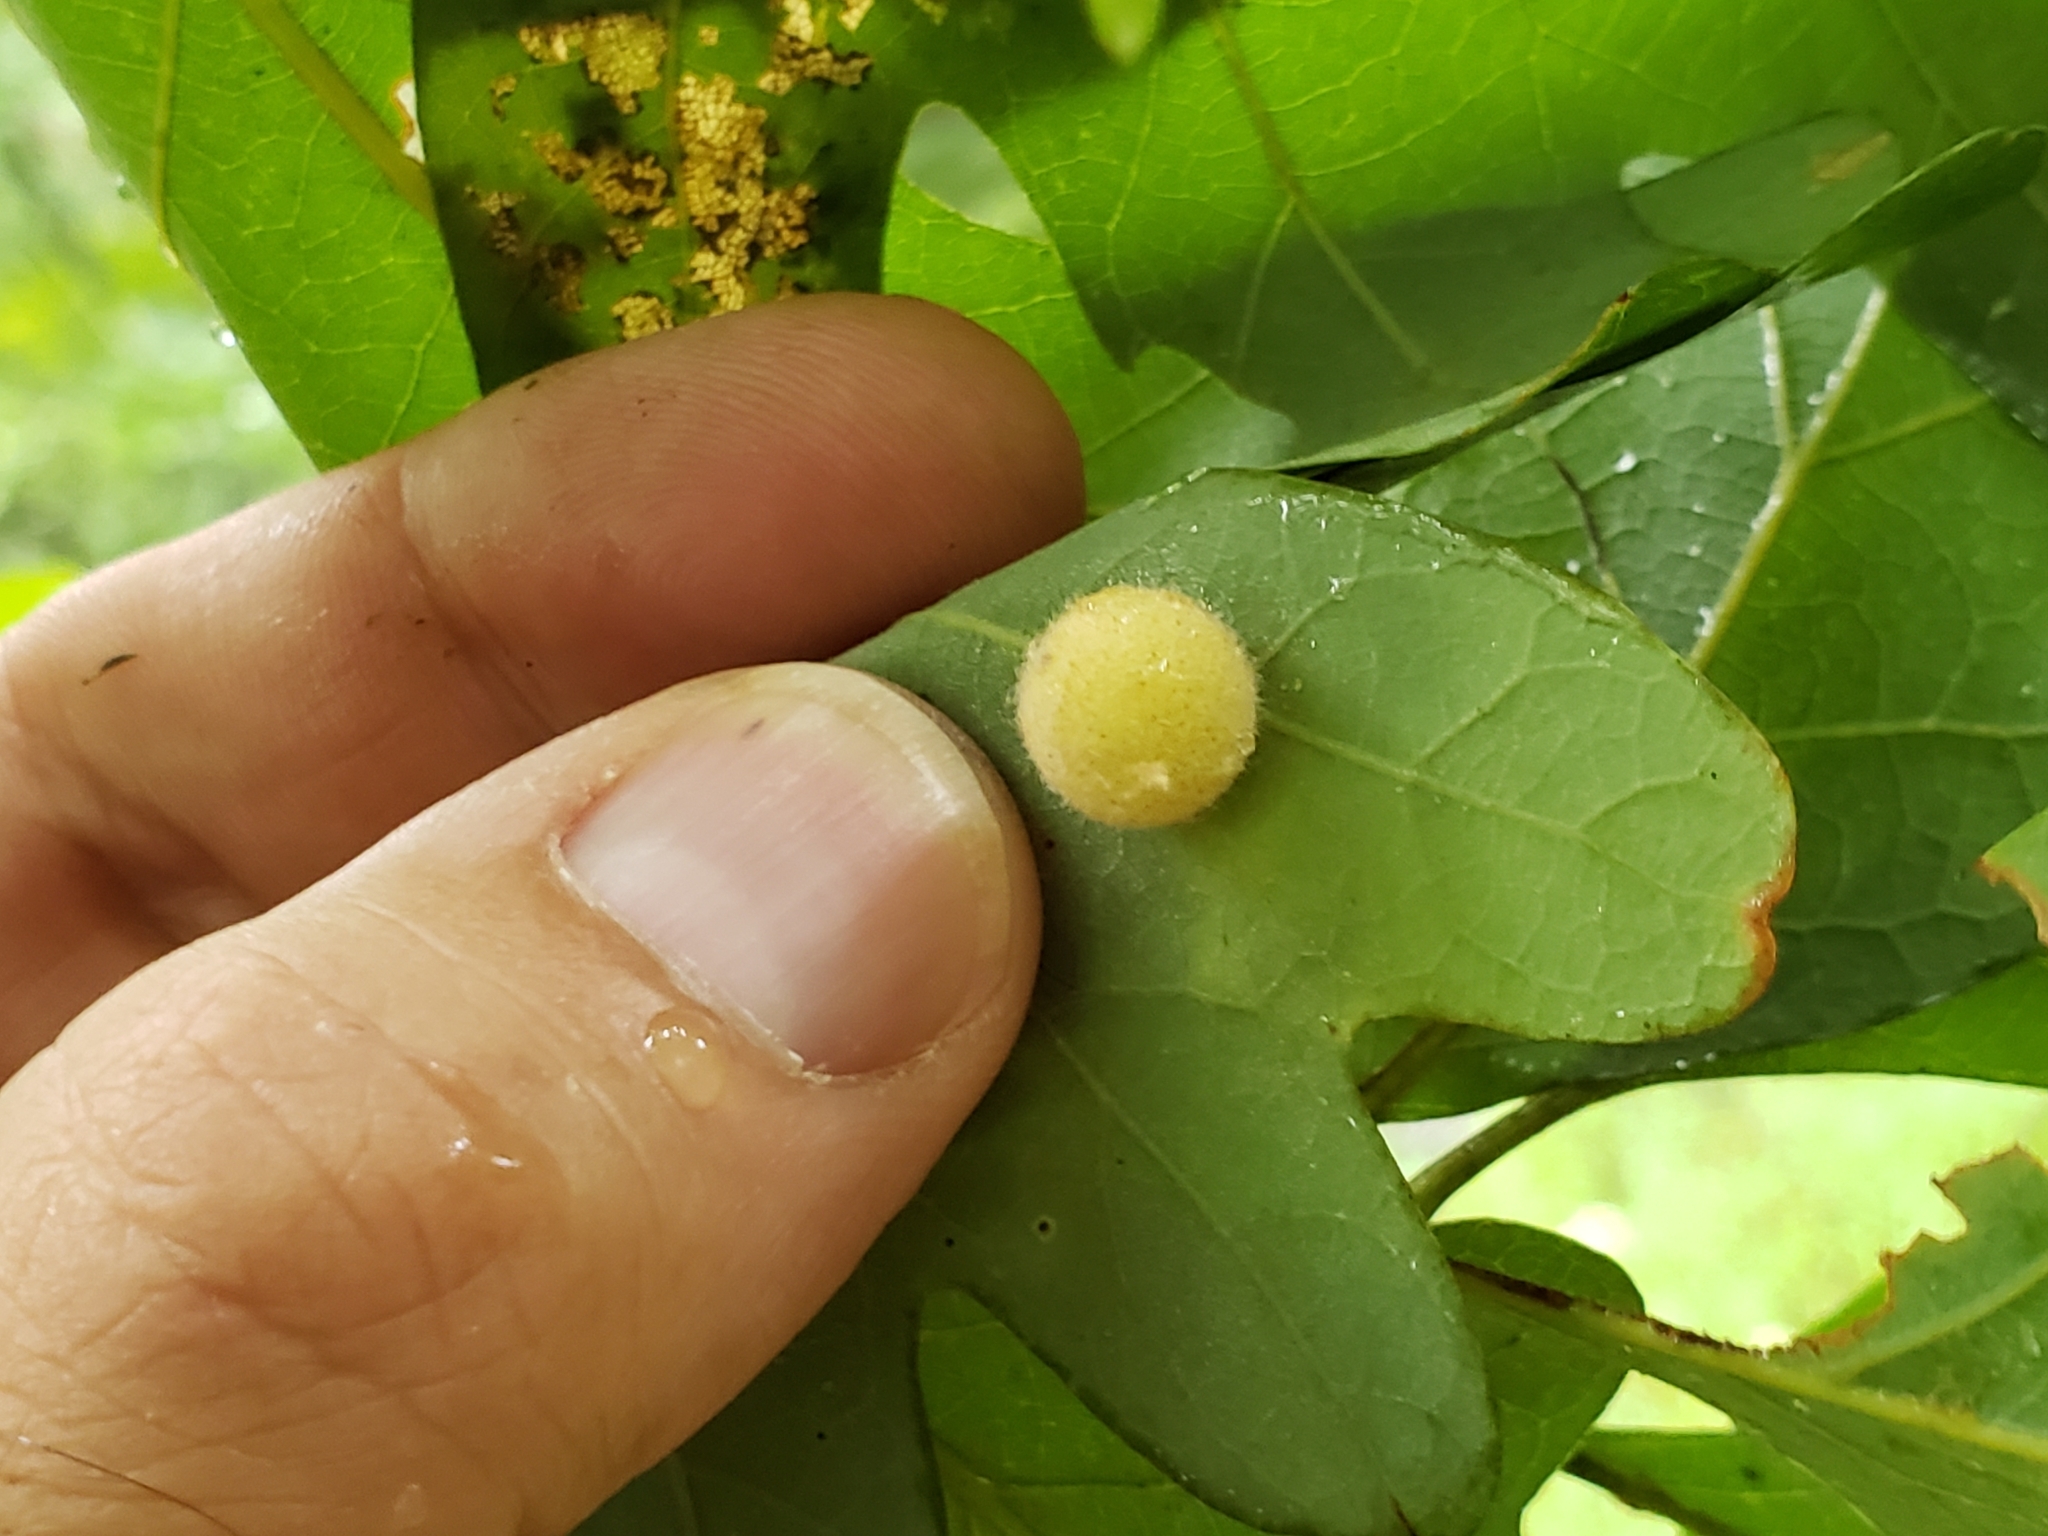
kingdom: Animalia
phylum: Arthropoda
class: Insecta
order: Hymenoptera
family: Cynipidae
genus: Philonix
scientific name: Philonix fulvicollis
